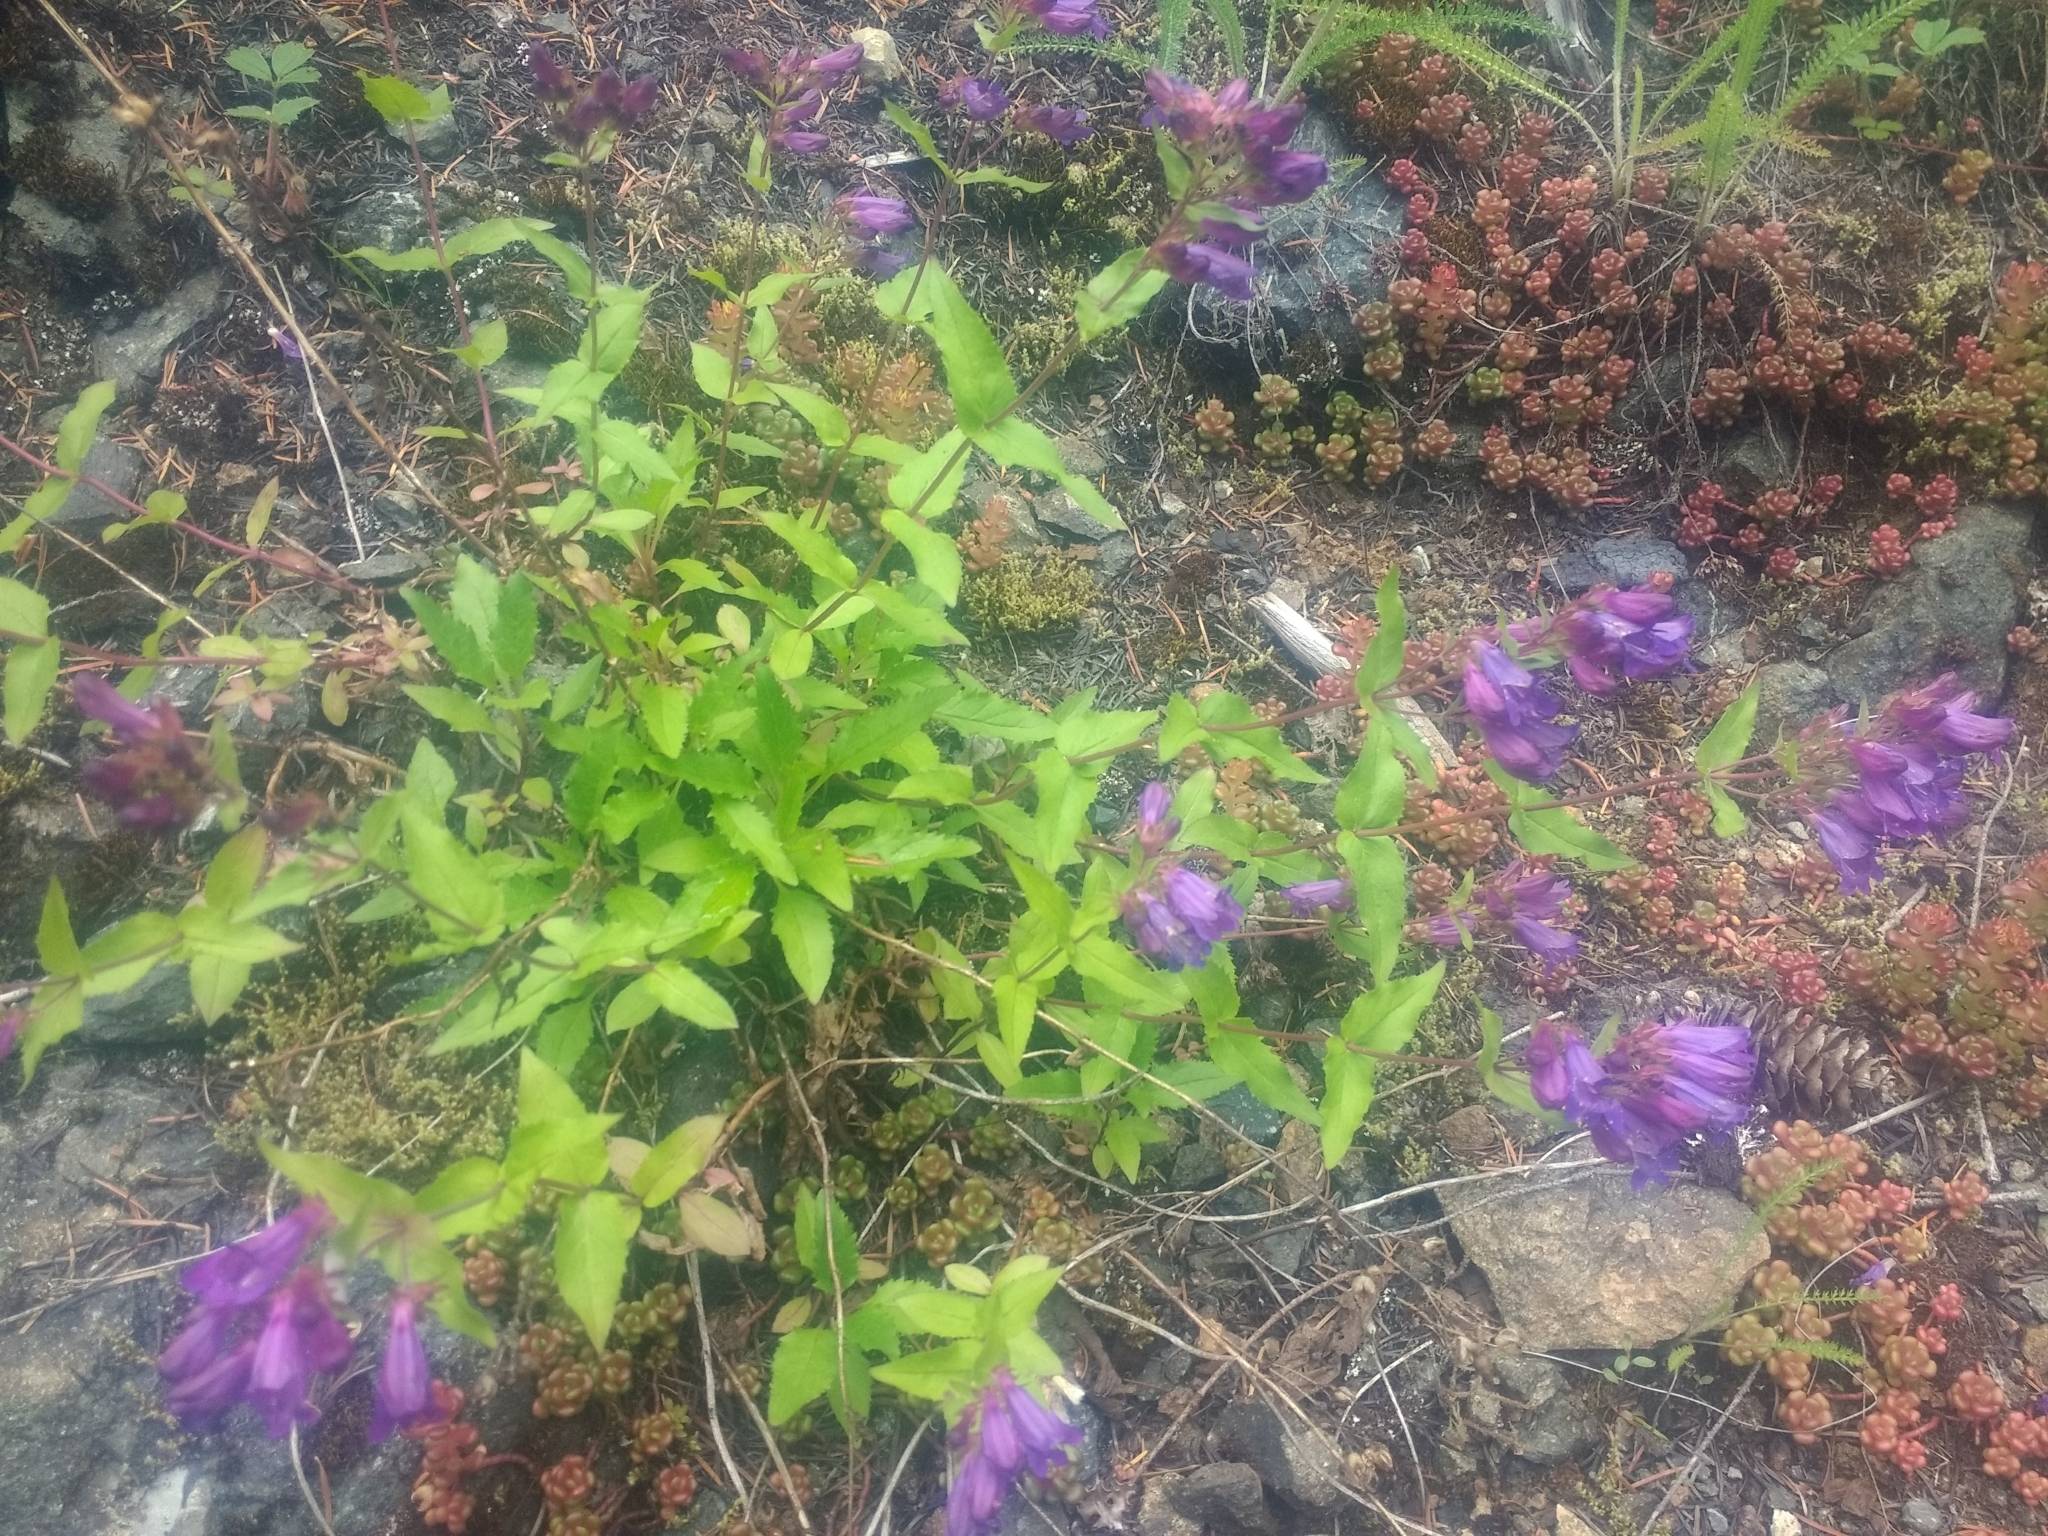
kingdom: Plantae
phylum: Tracheophyta
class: Magnoliopsida
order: Lamiales
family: Plantaginaceae
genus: Penstemon
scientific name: Penstemon serrulatus
